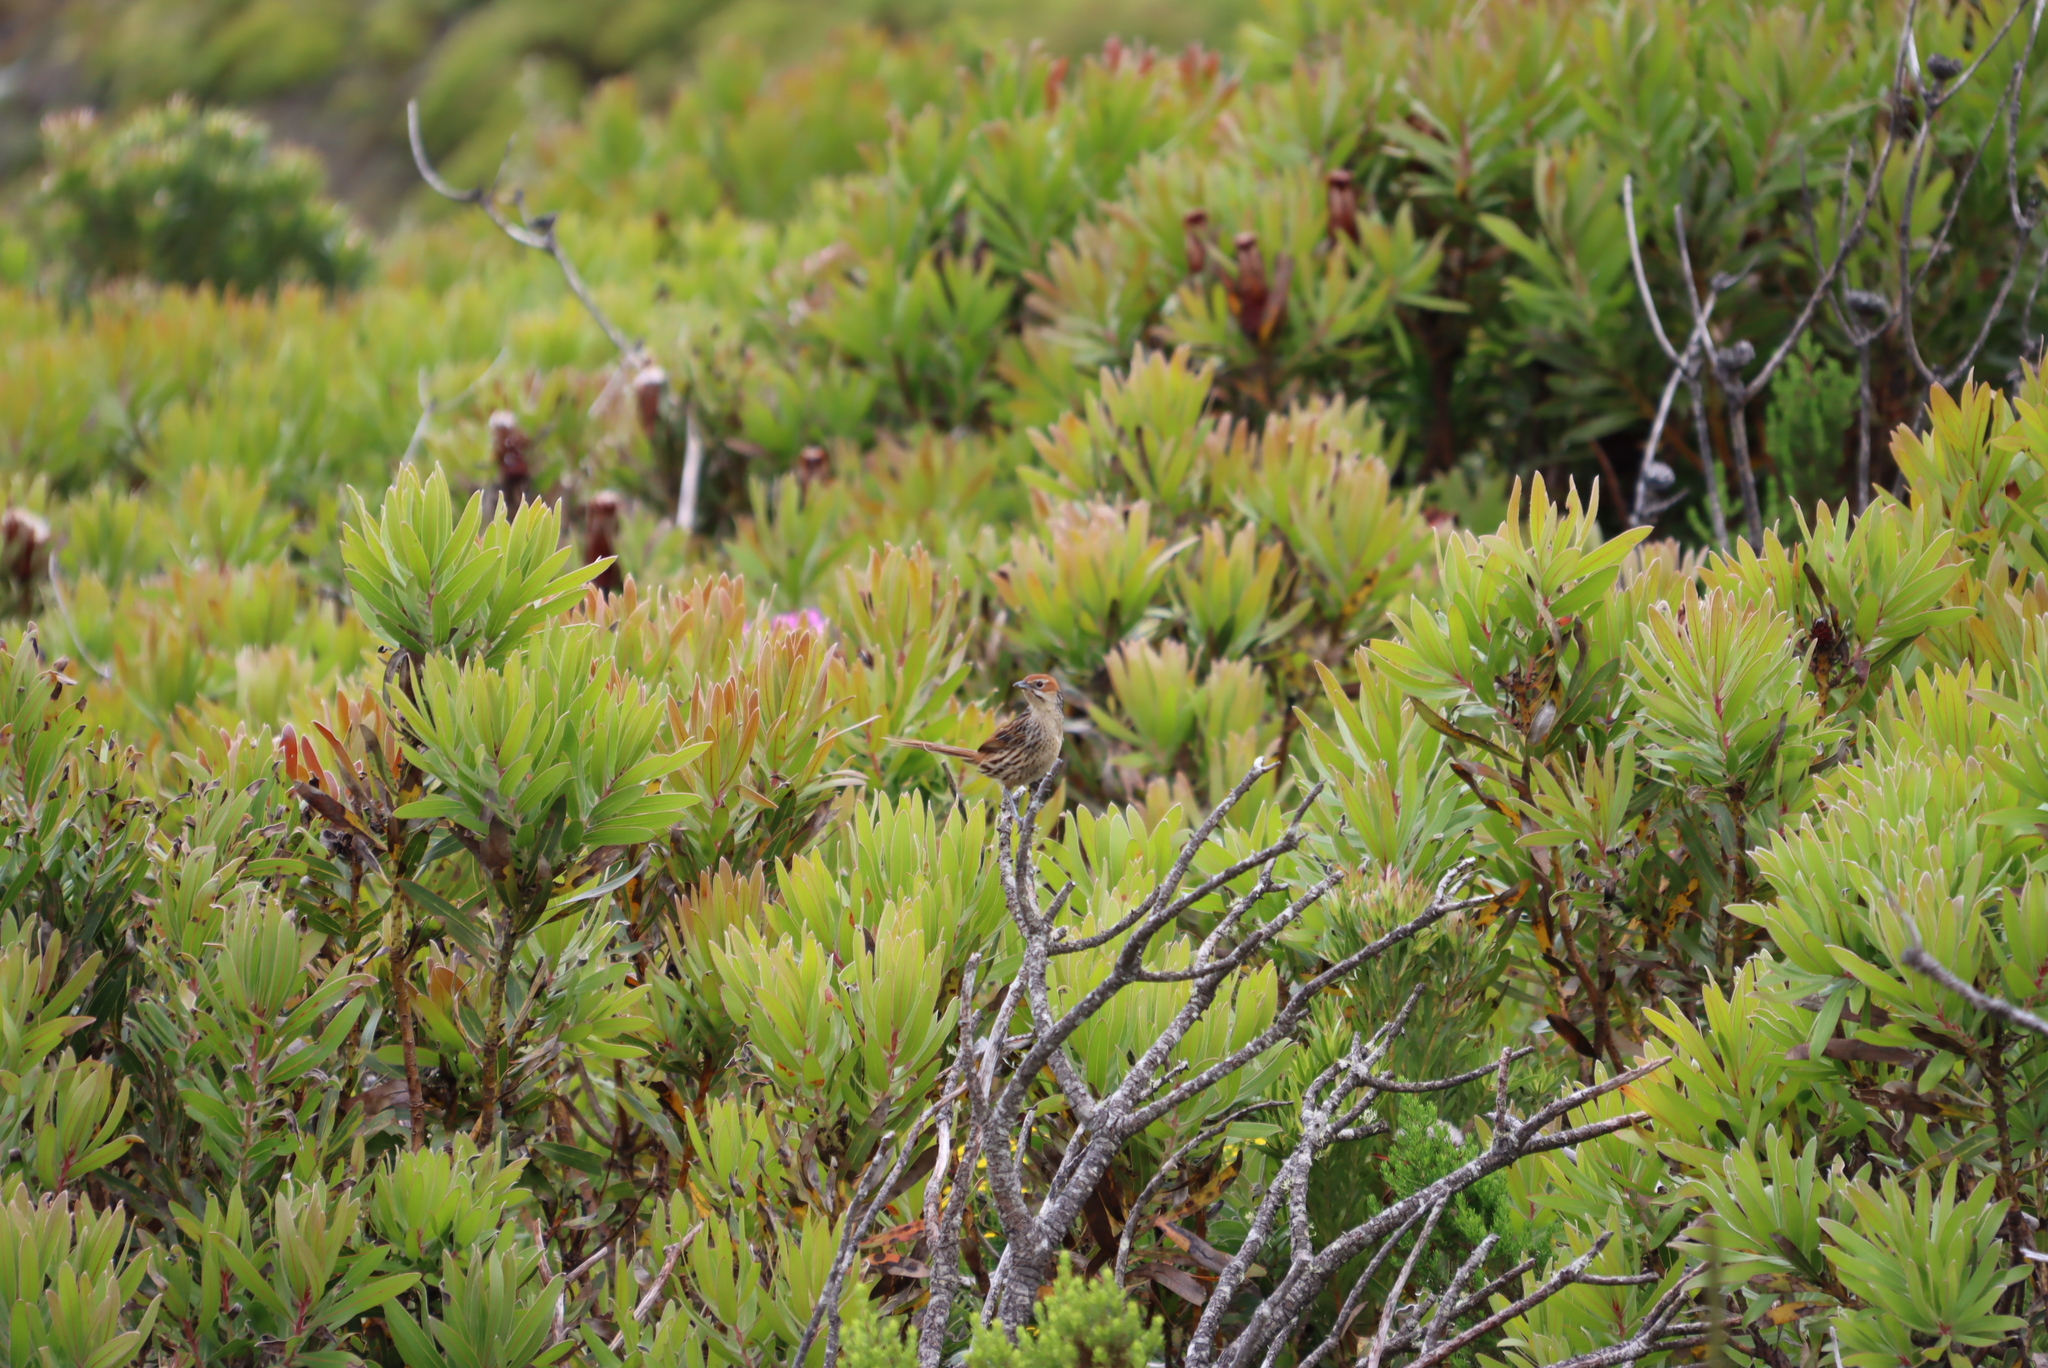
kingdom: Animalia
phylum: Chordata
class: Aves
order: Passeriformes
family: Macrosphenidae
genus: Sphenoeacus
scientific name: Sphenoeacus afer
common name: Cape grassbird
